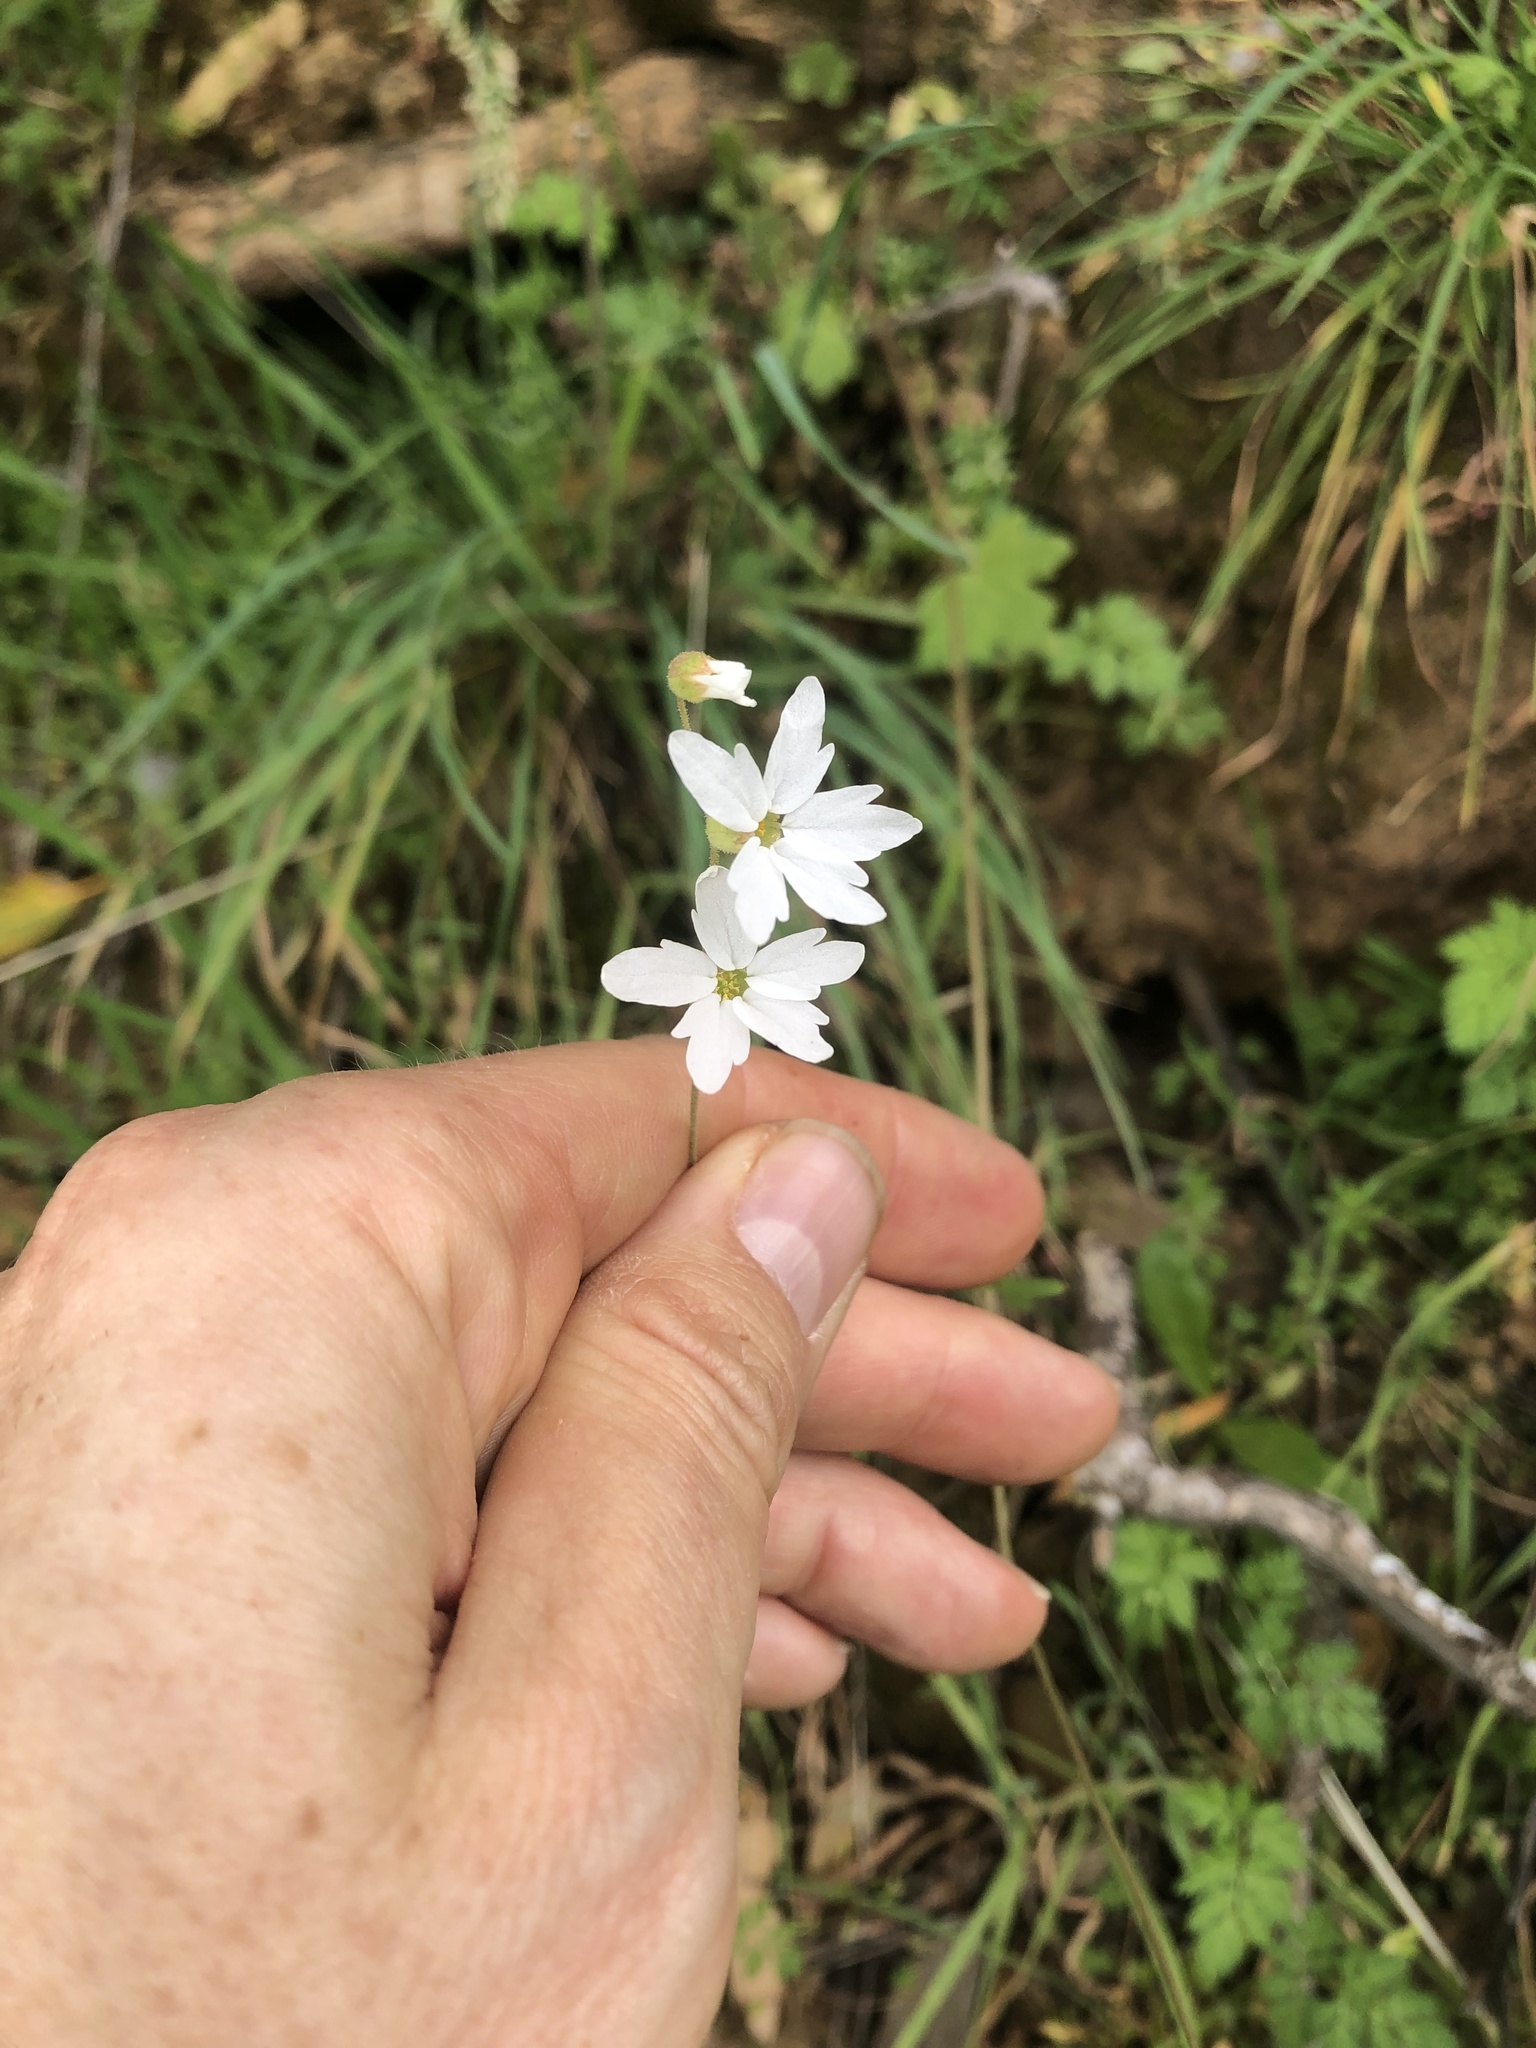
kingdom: Plantae
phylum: Tracheophyta
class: Magnoliopsida
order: Saxifragales
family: Saxifragaceae
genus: Lithophragma
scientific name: Lithophragma heterophyllum
